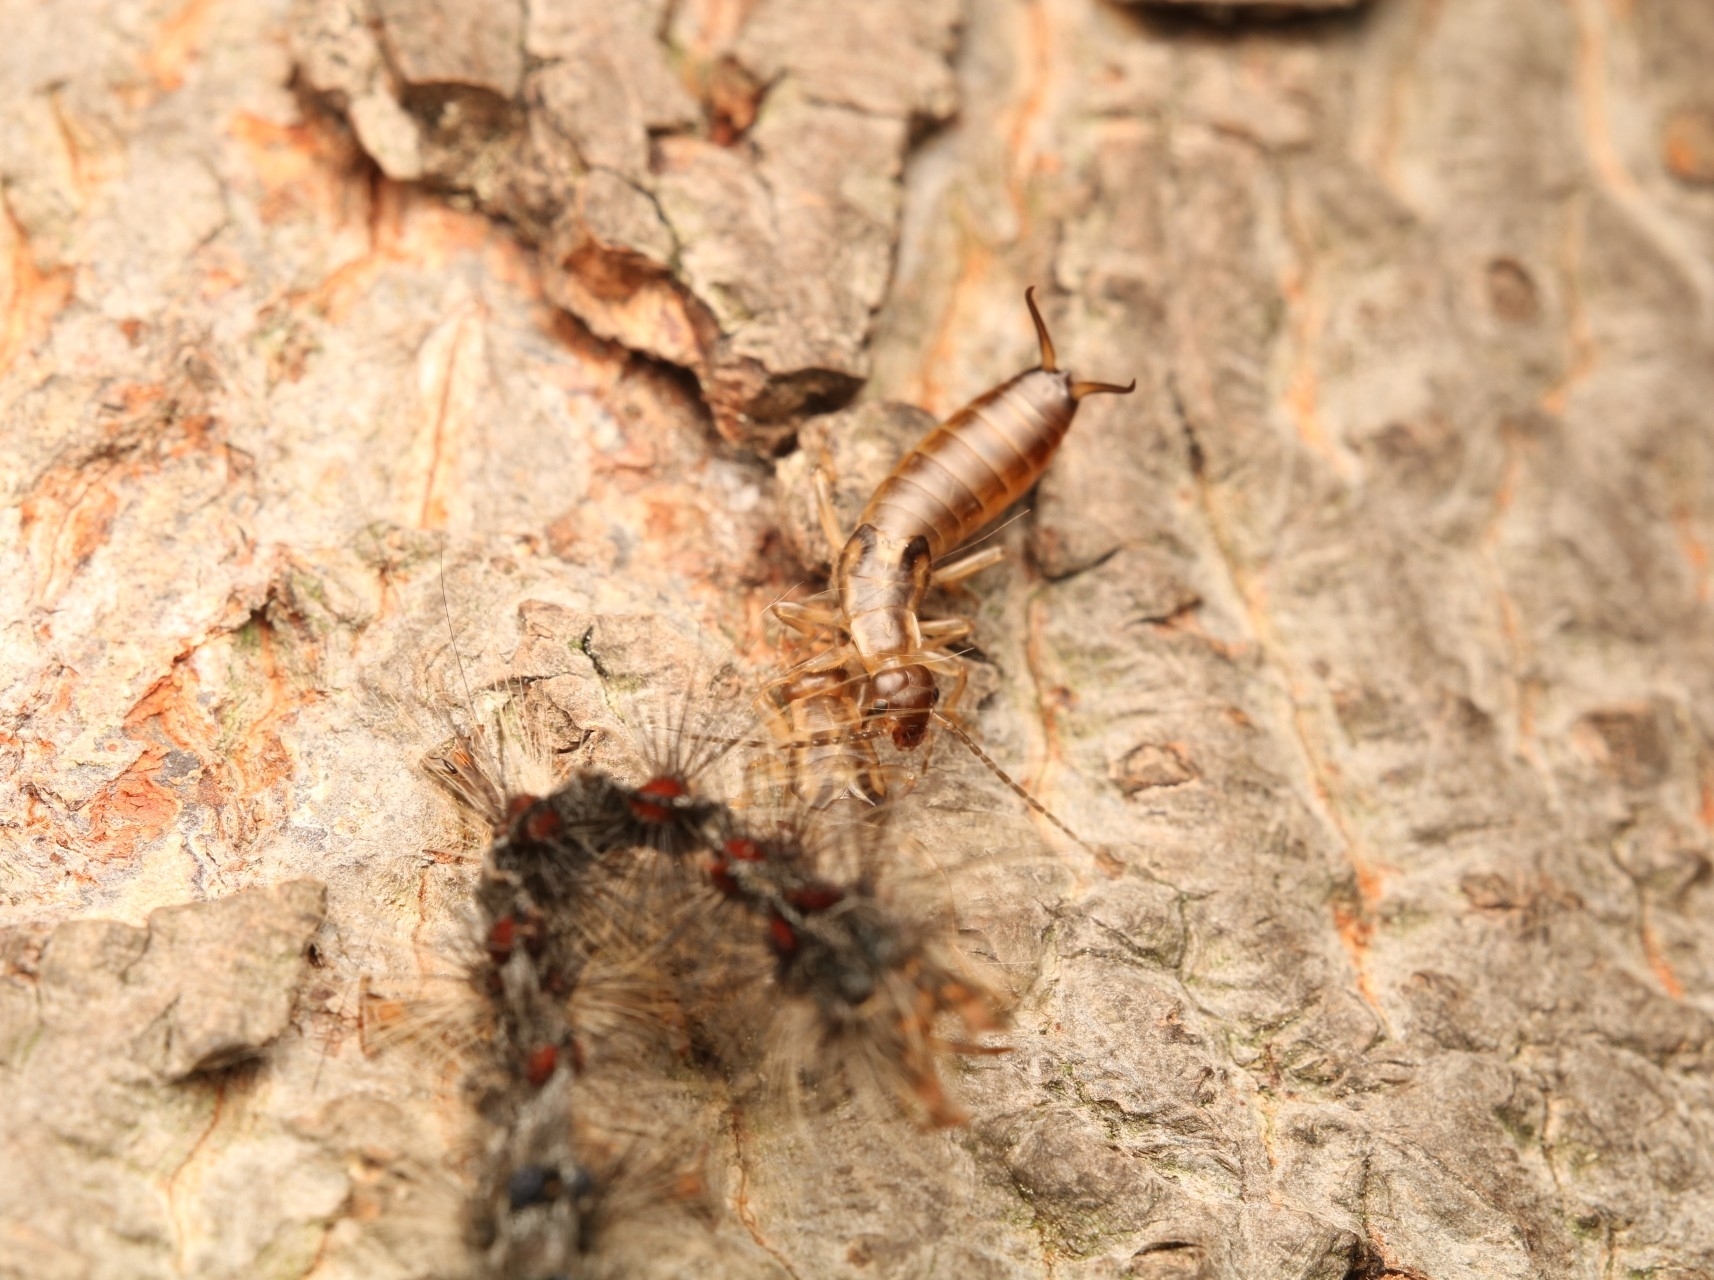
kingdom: Animalia
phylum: Arthropoda
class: Insecta
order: Dermaptera
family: Forficulidae
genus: Forficula
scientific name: Forficula
